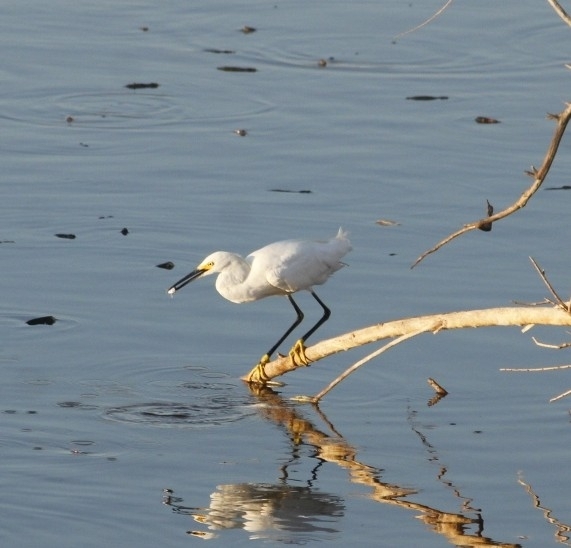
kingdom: Animalia
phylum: Chordata
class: Aves
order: Pelecaniformes
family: Ardeidae
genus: Egretta
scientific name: Egretta thula
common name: Snowy egret
